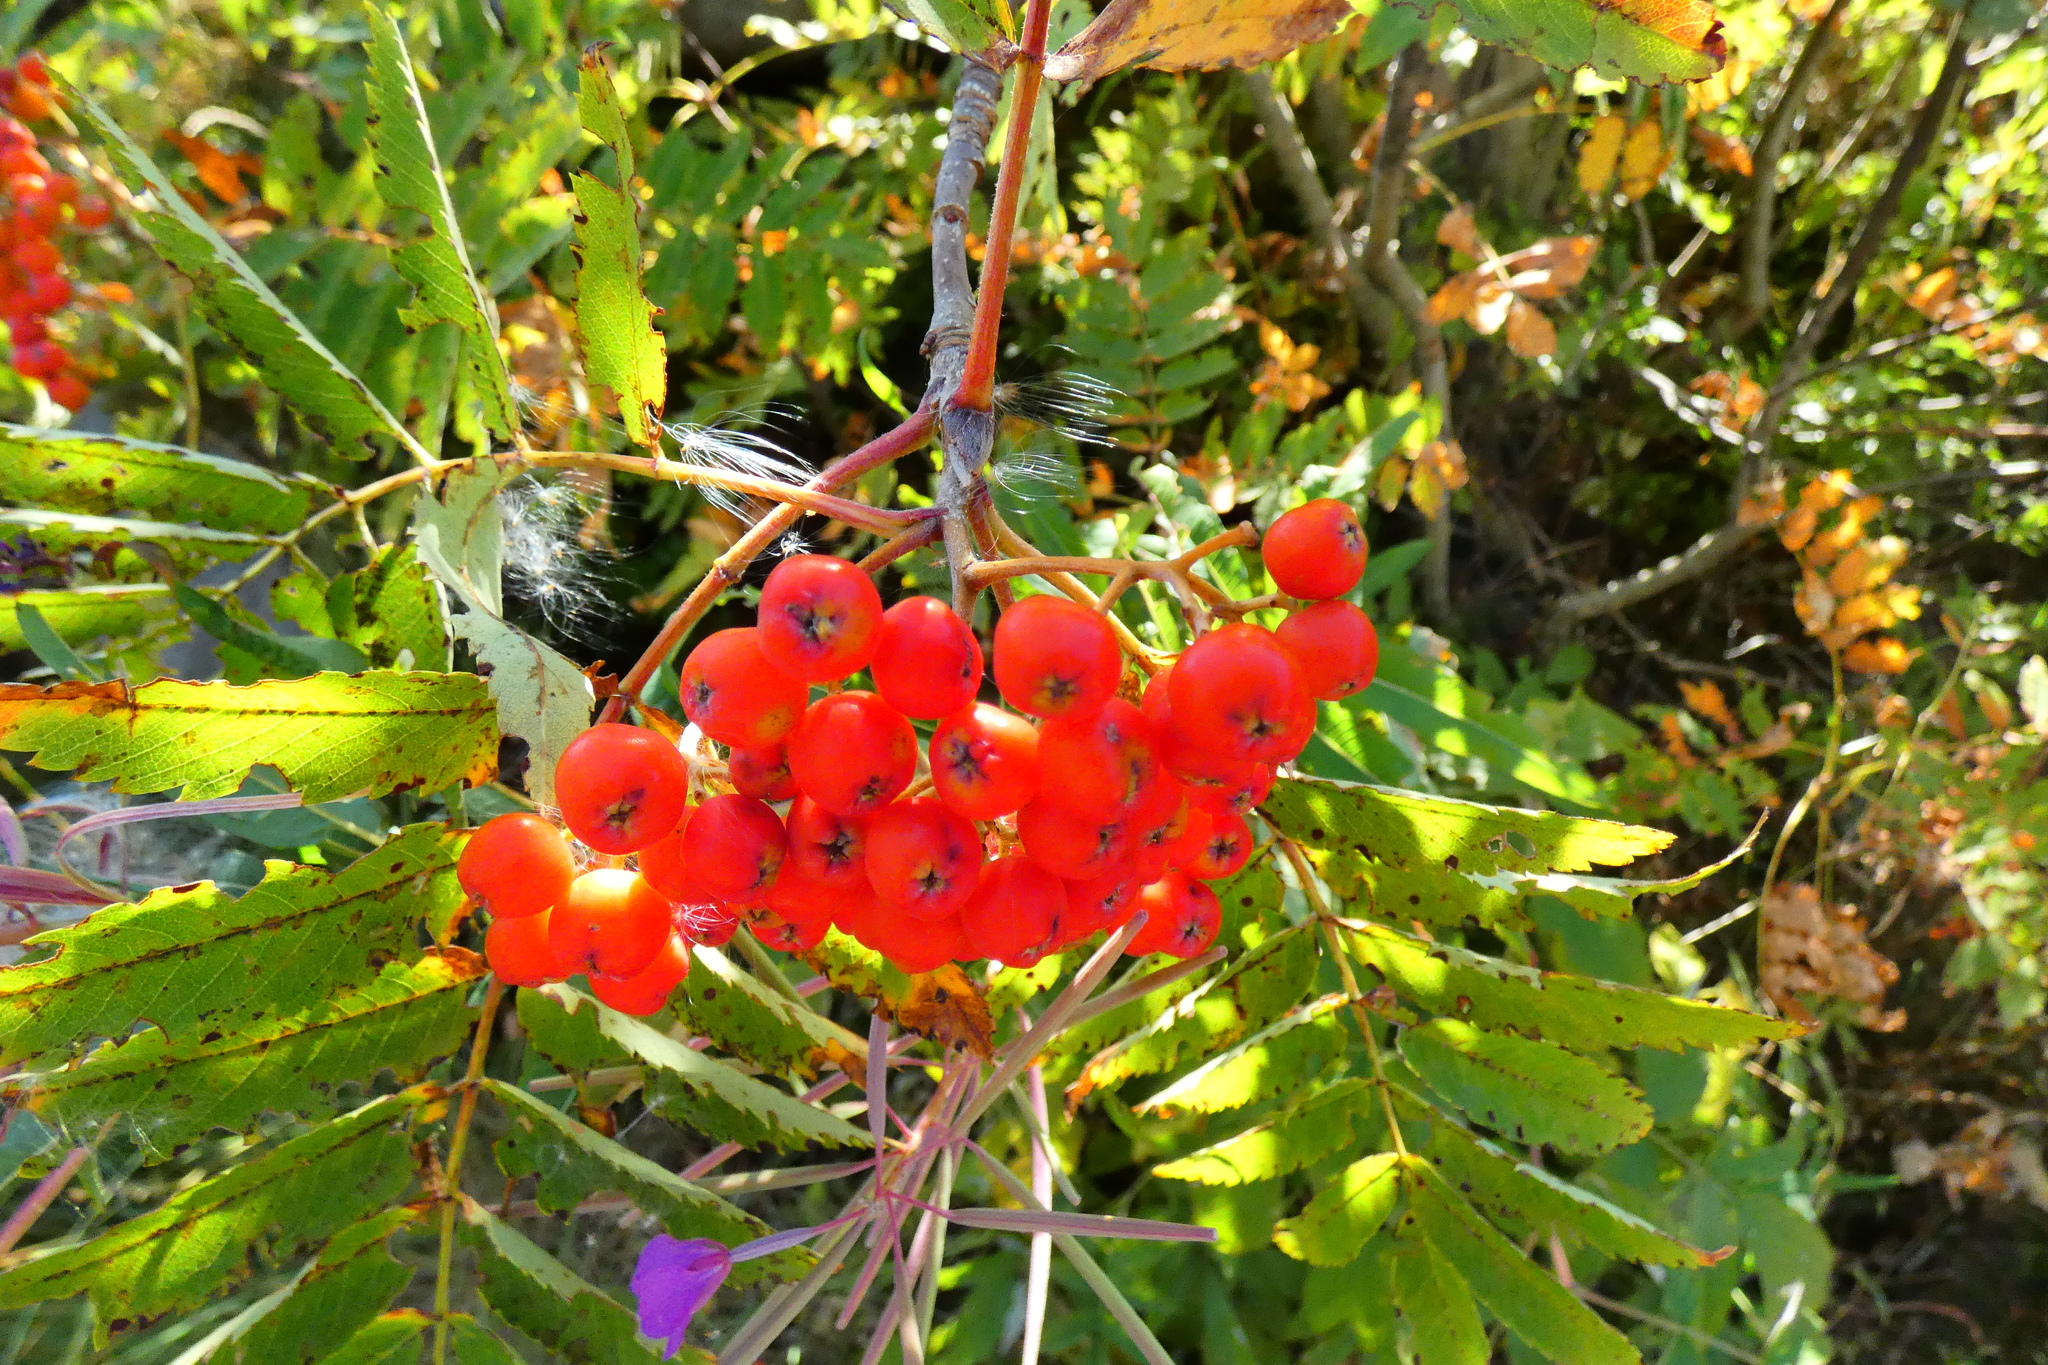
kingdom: Plantae
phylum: Tracheophyta
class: Magnoliopsida
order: Rosales
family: Rosaceae
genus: Sorbus
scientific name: Sorbus aucuparia
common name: Rowan
